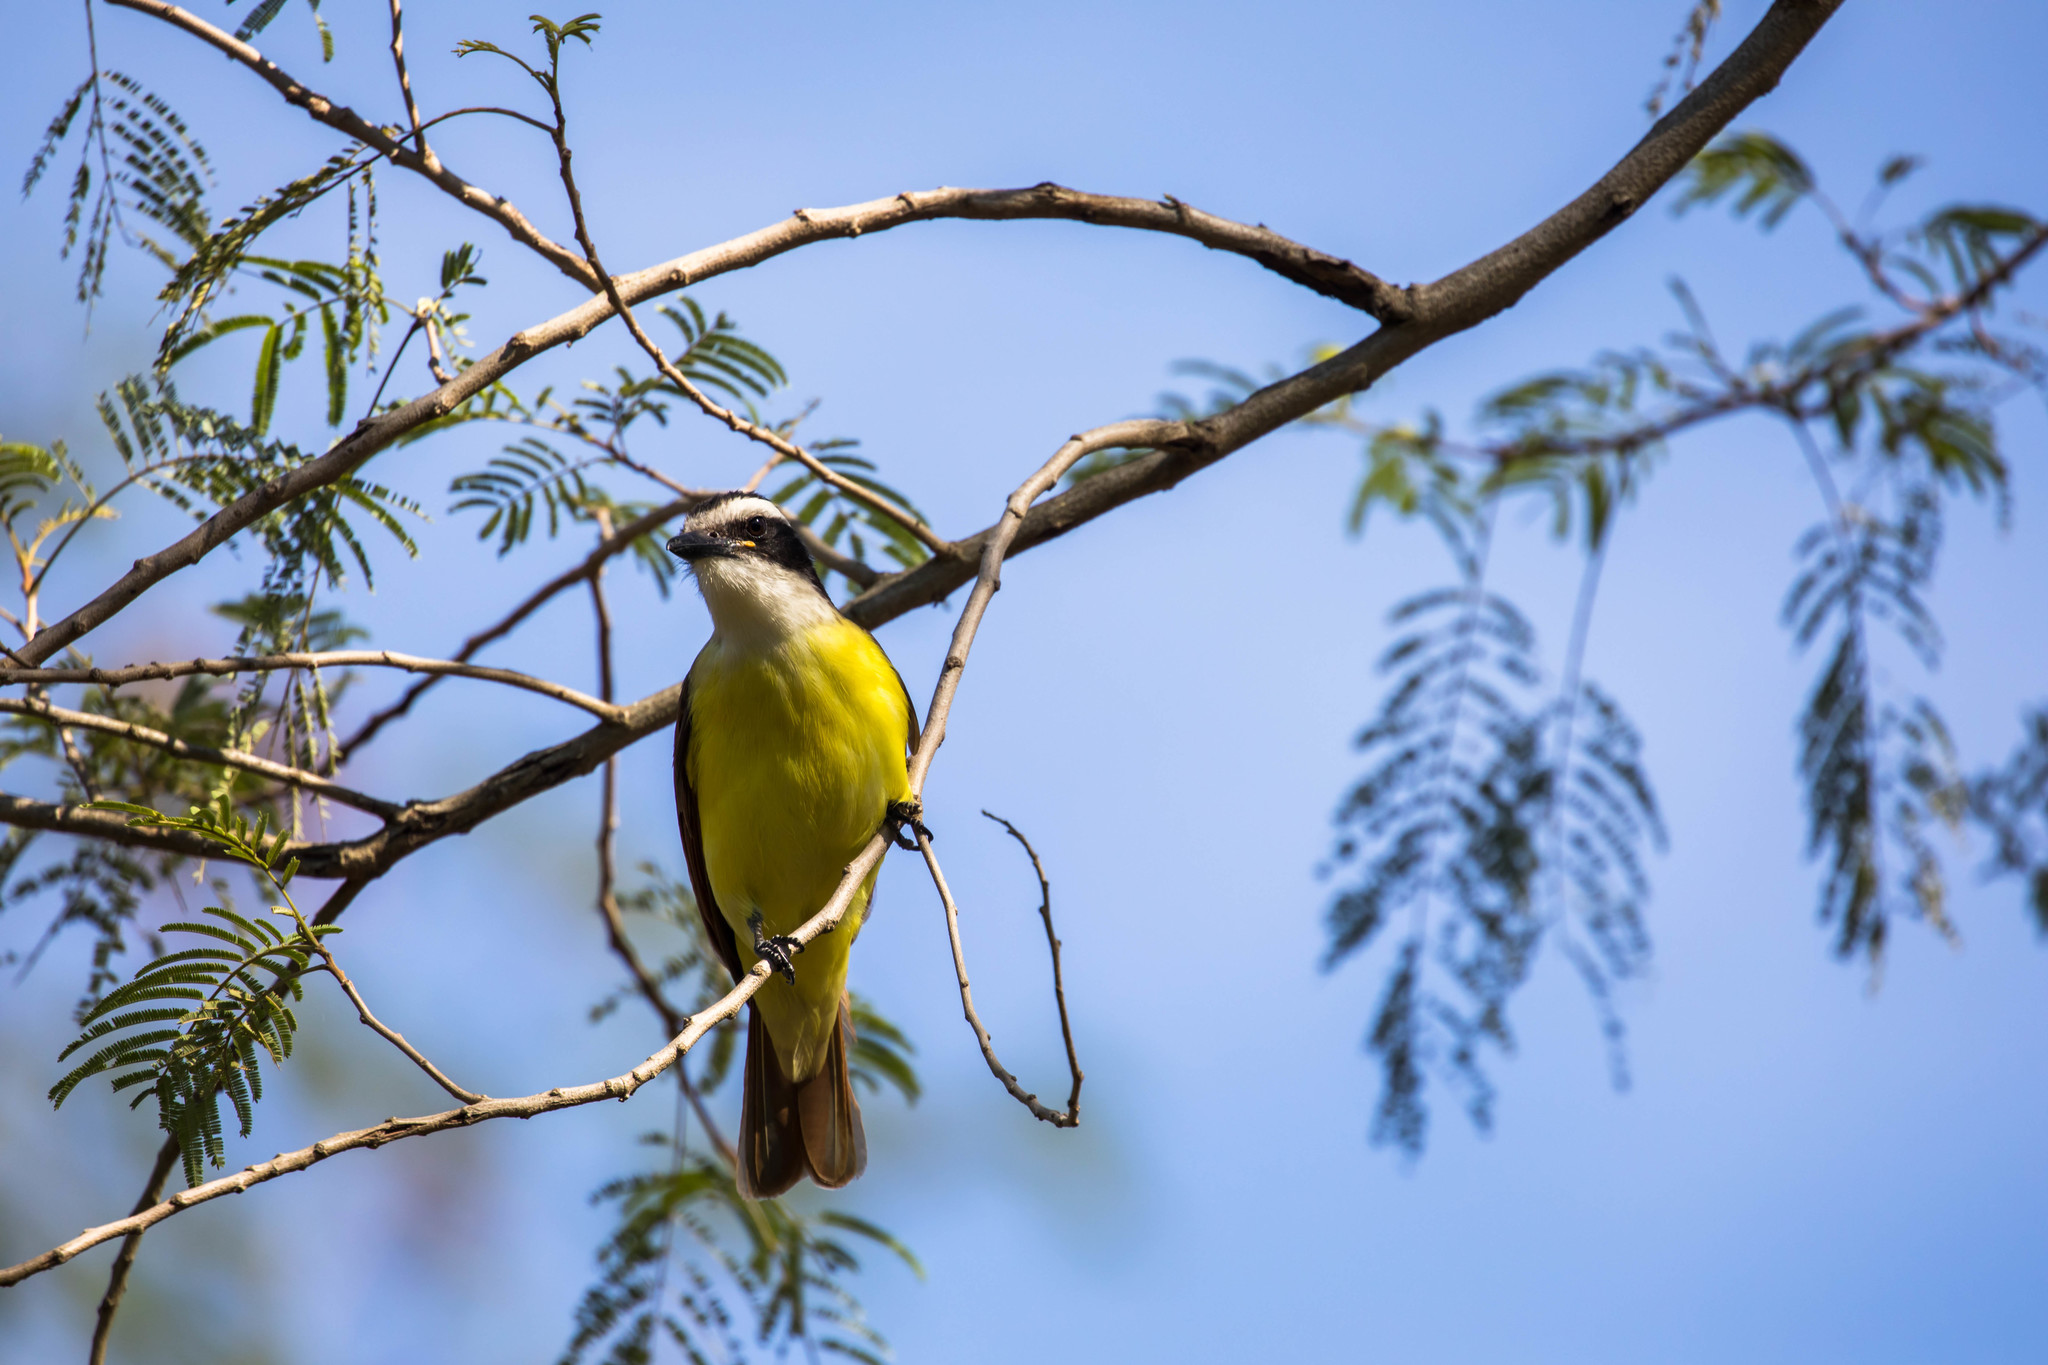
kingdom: Animalia
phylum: Chordata
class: Aves
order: Passeriformes
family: Tyrannidae
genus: Pitangus
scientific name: Pitangus sulphuratus
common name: Great kiskadee
